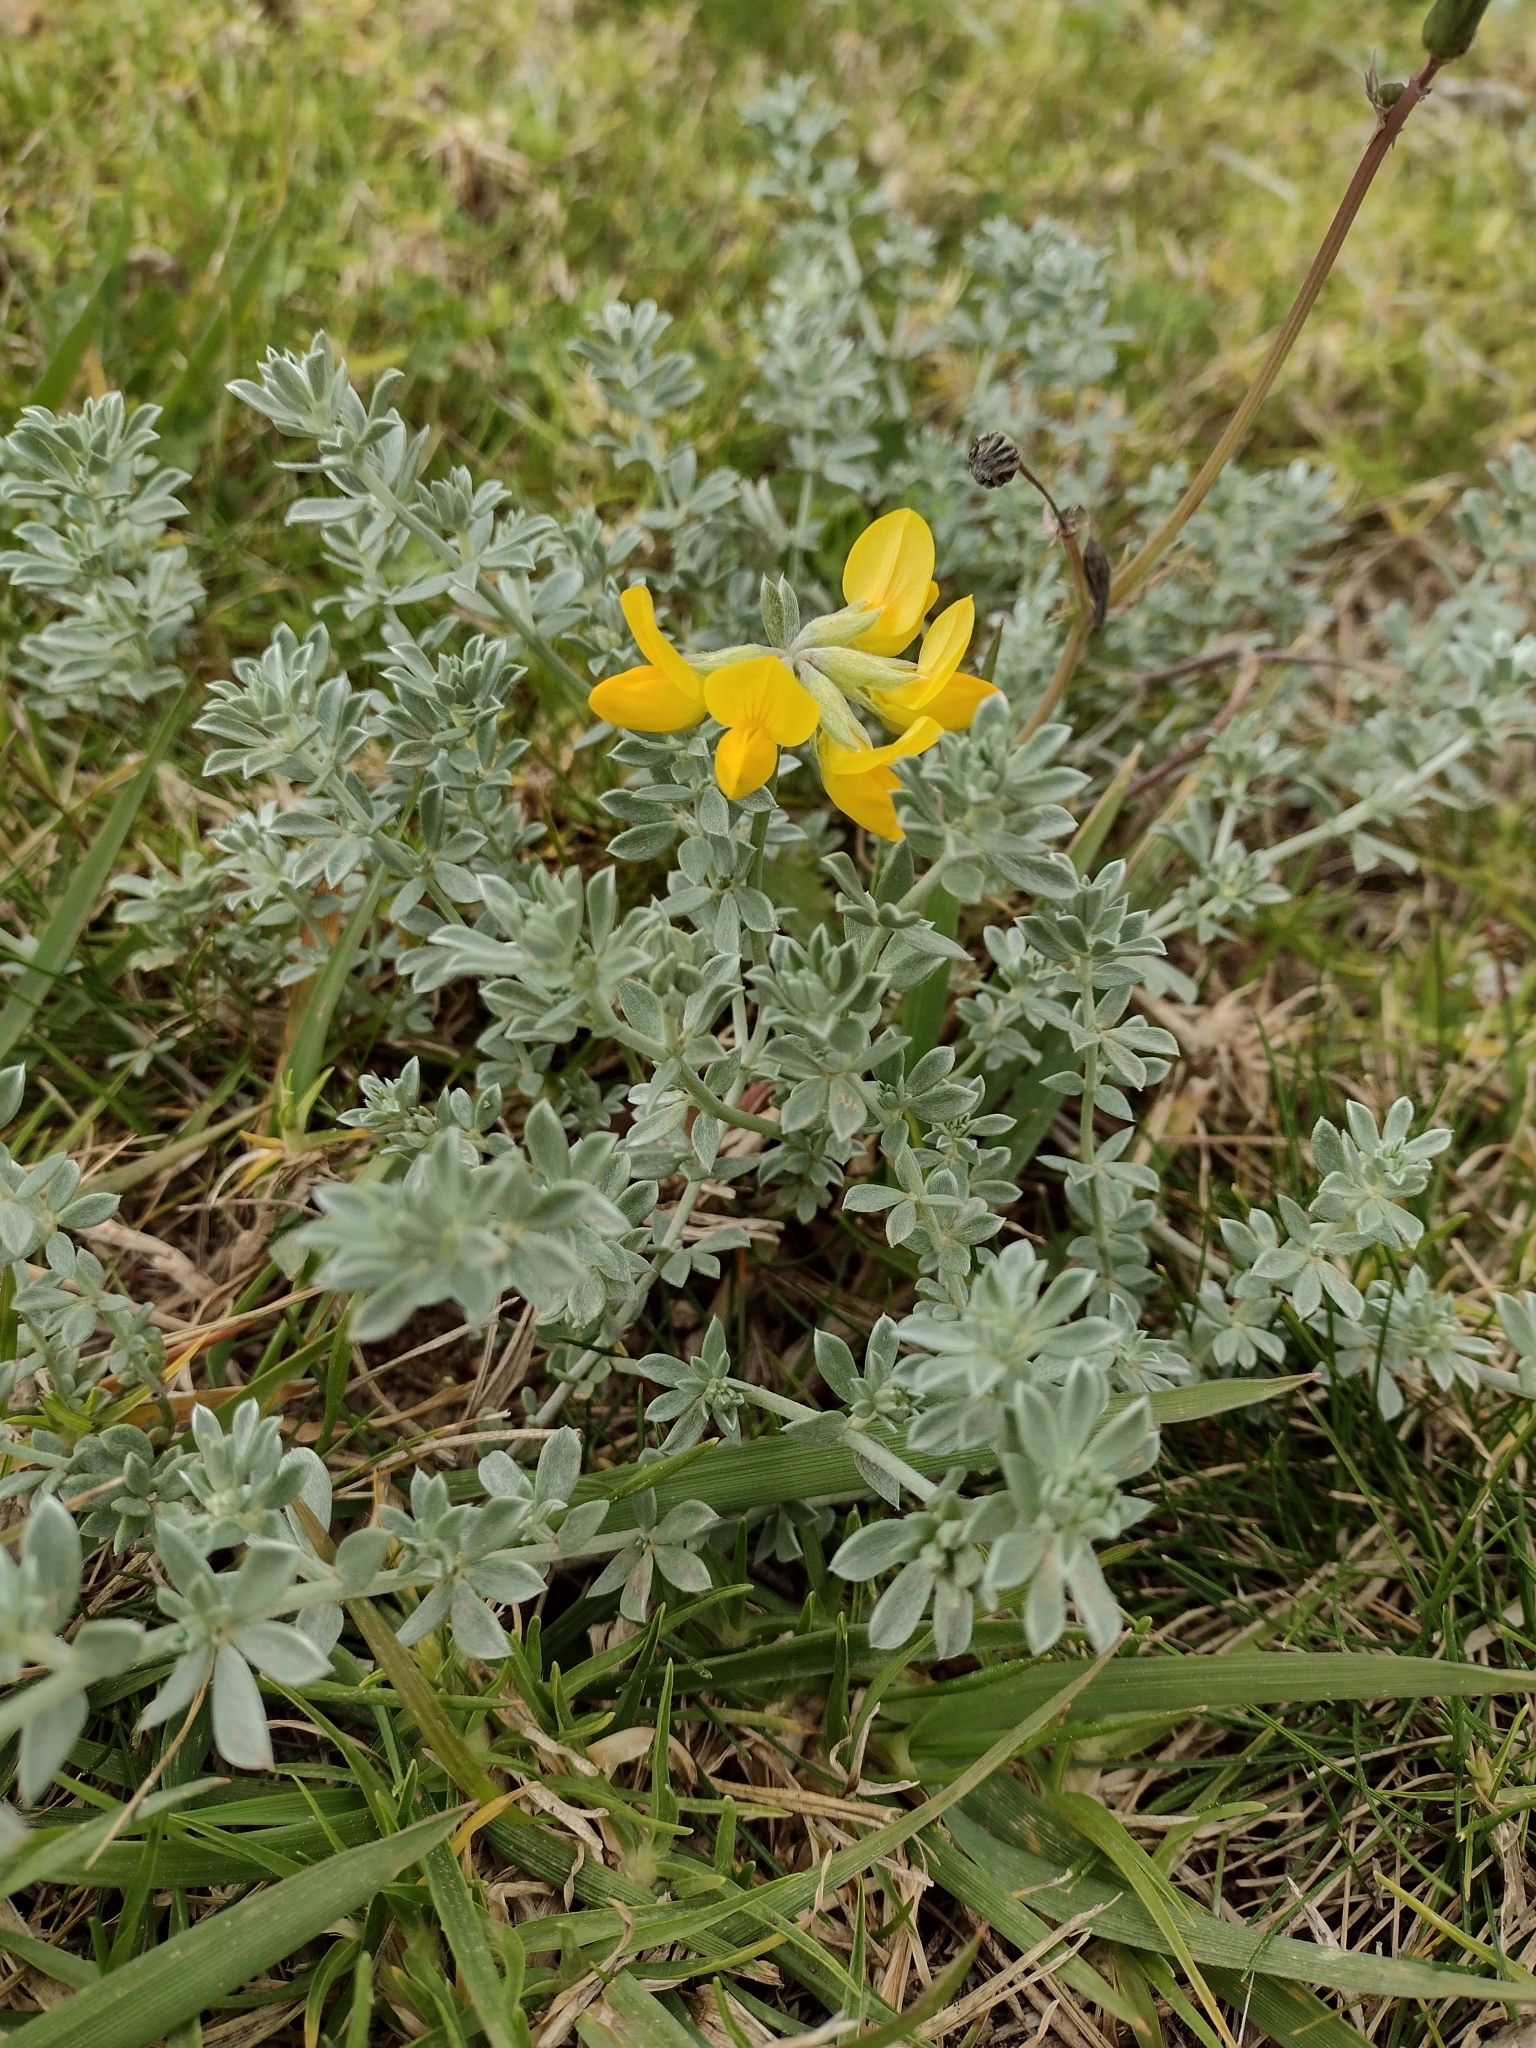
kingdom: Plantae
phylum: Tracheophyta
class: Magnoliopsida
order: Fabales
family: Fabaceae
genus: Lotus
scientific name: Lotus creticus
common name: Cretan bird's-foot trefoil
